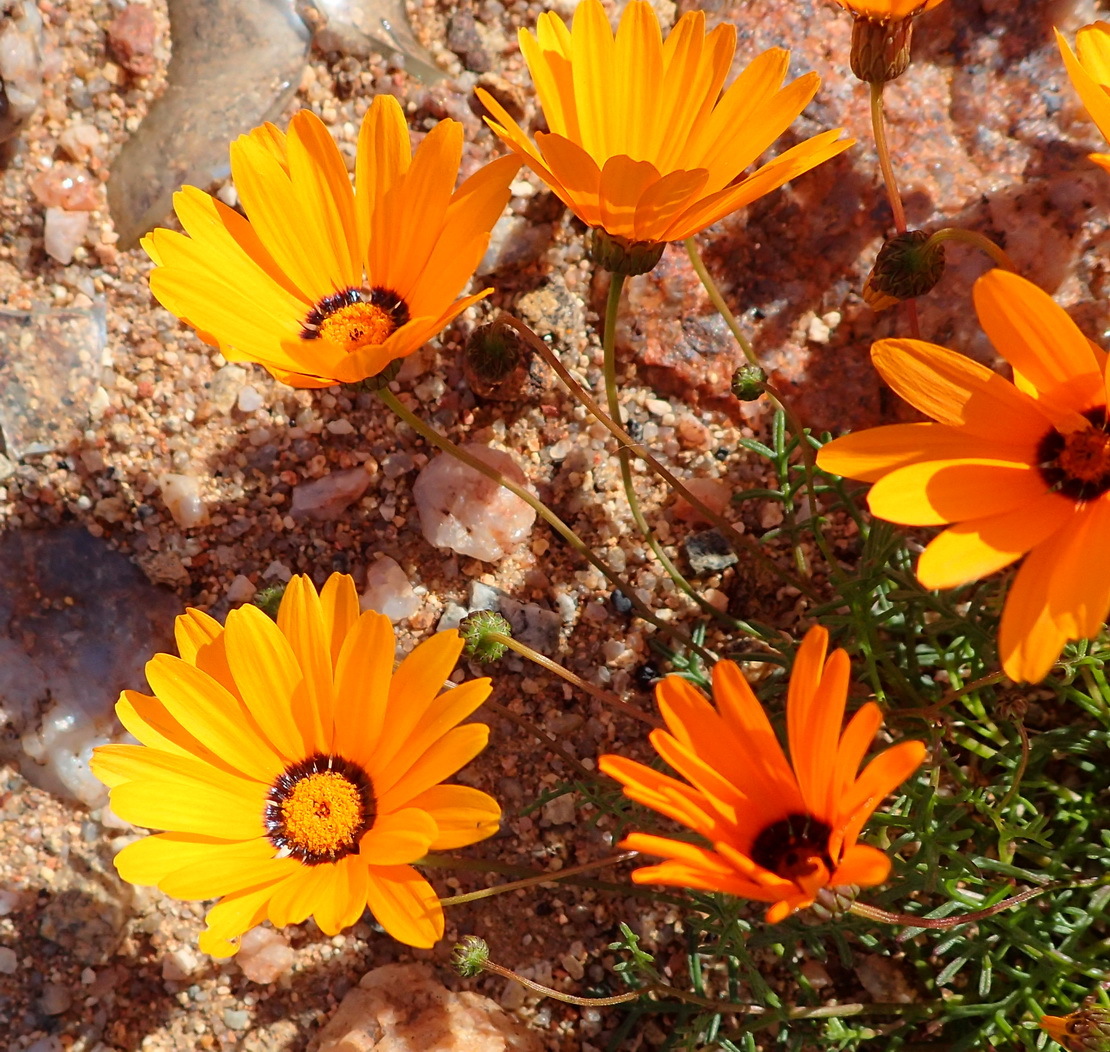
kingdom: Plantae
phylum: Tracheophyta
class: Magnoliopsida
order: Asterales
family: Asteraceae
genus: Ursinia
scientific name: Ursinia calenduliflora
